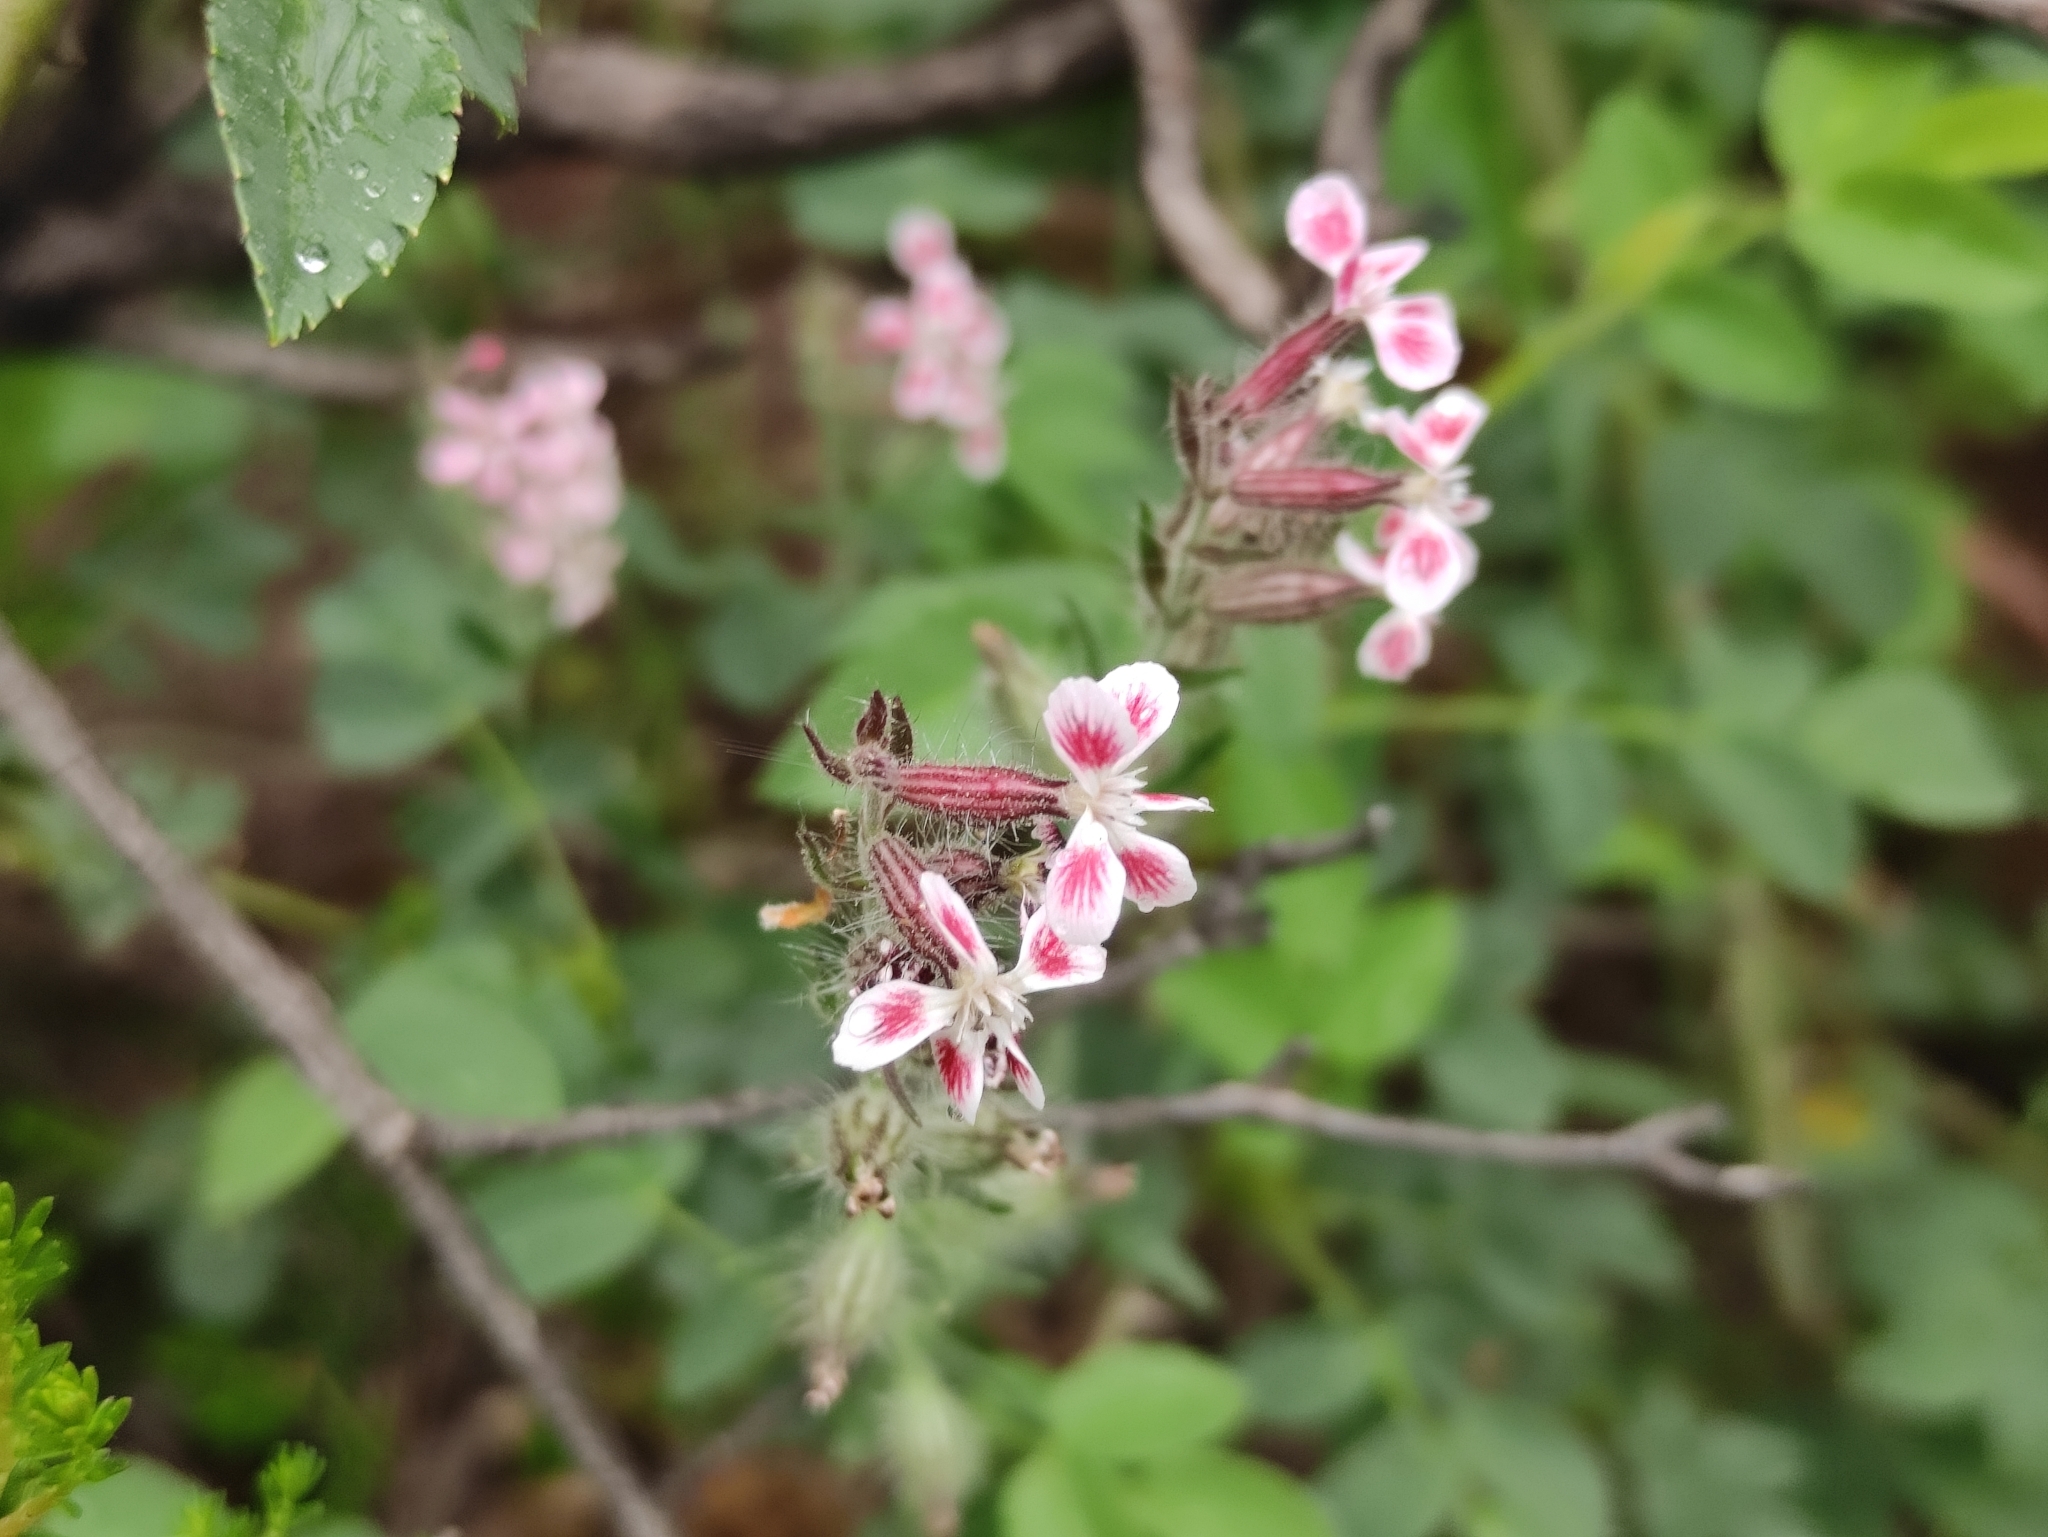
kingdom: Plantae
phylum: Tracheophyta
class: Magnoliopsida
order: Caryophyllales
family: Caryophyllaceae
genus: Silene
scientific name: Silene gallica
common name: Small-flowered catchfly
